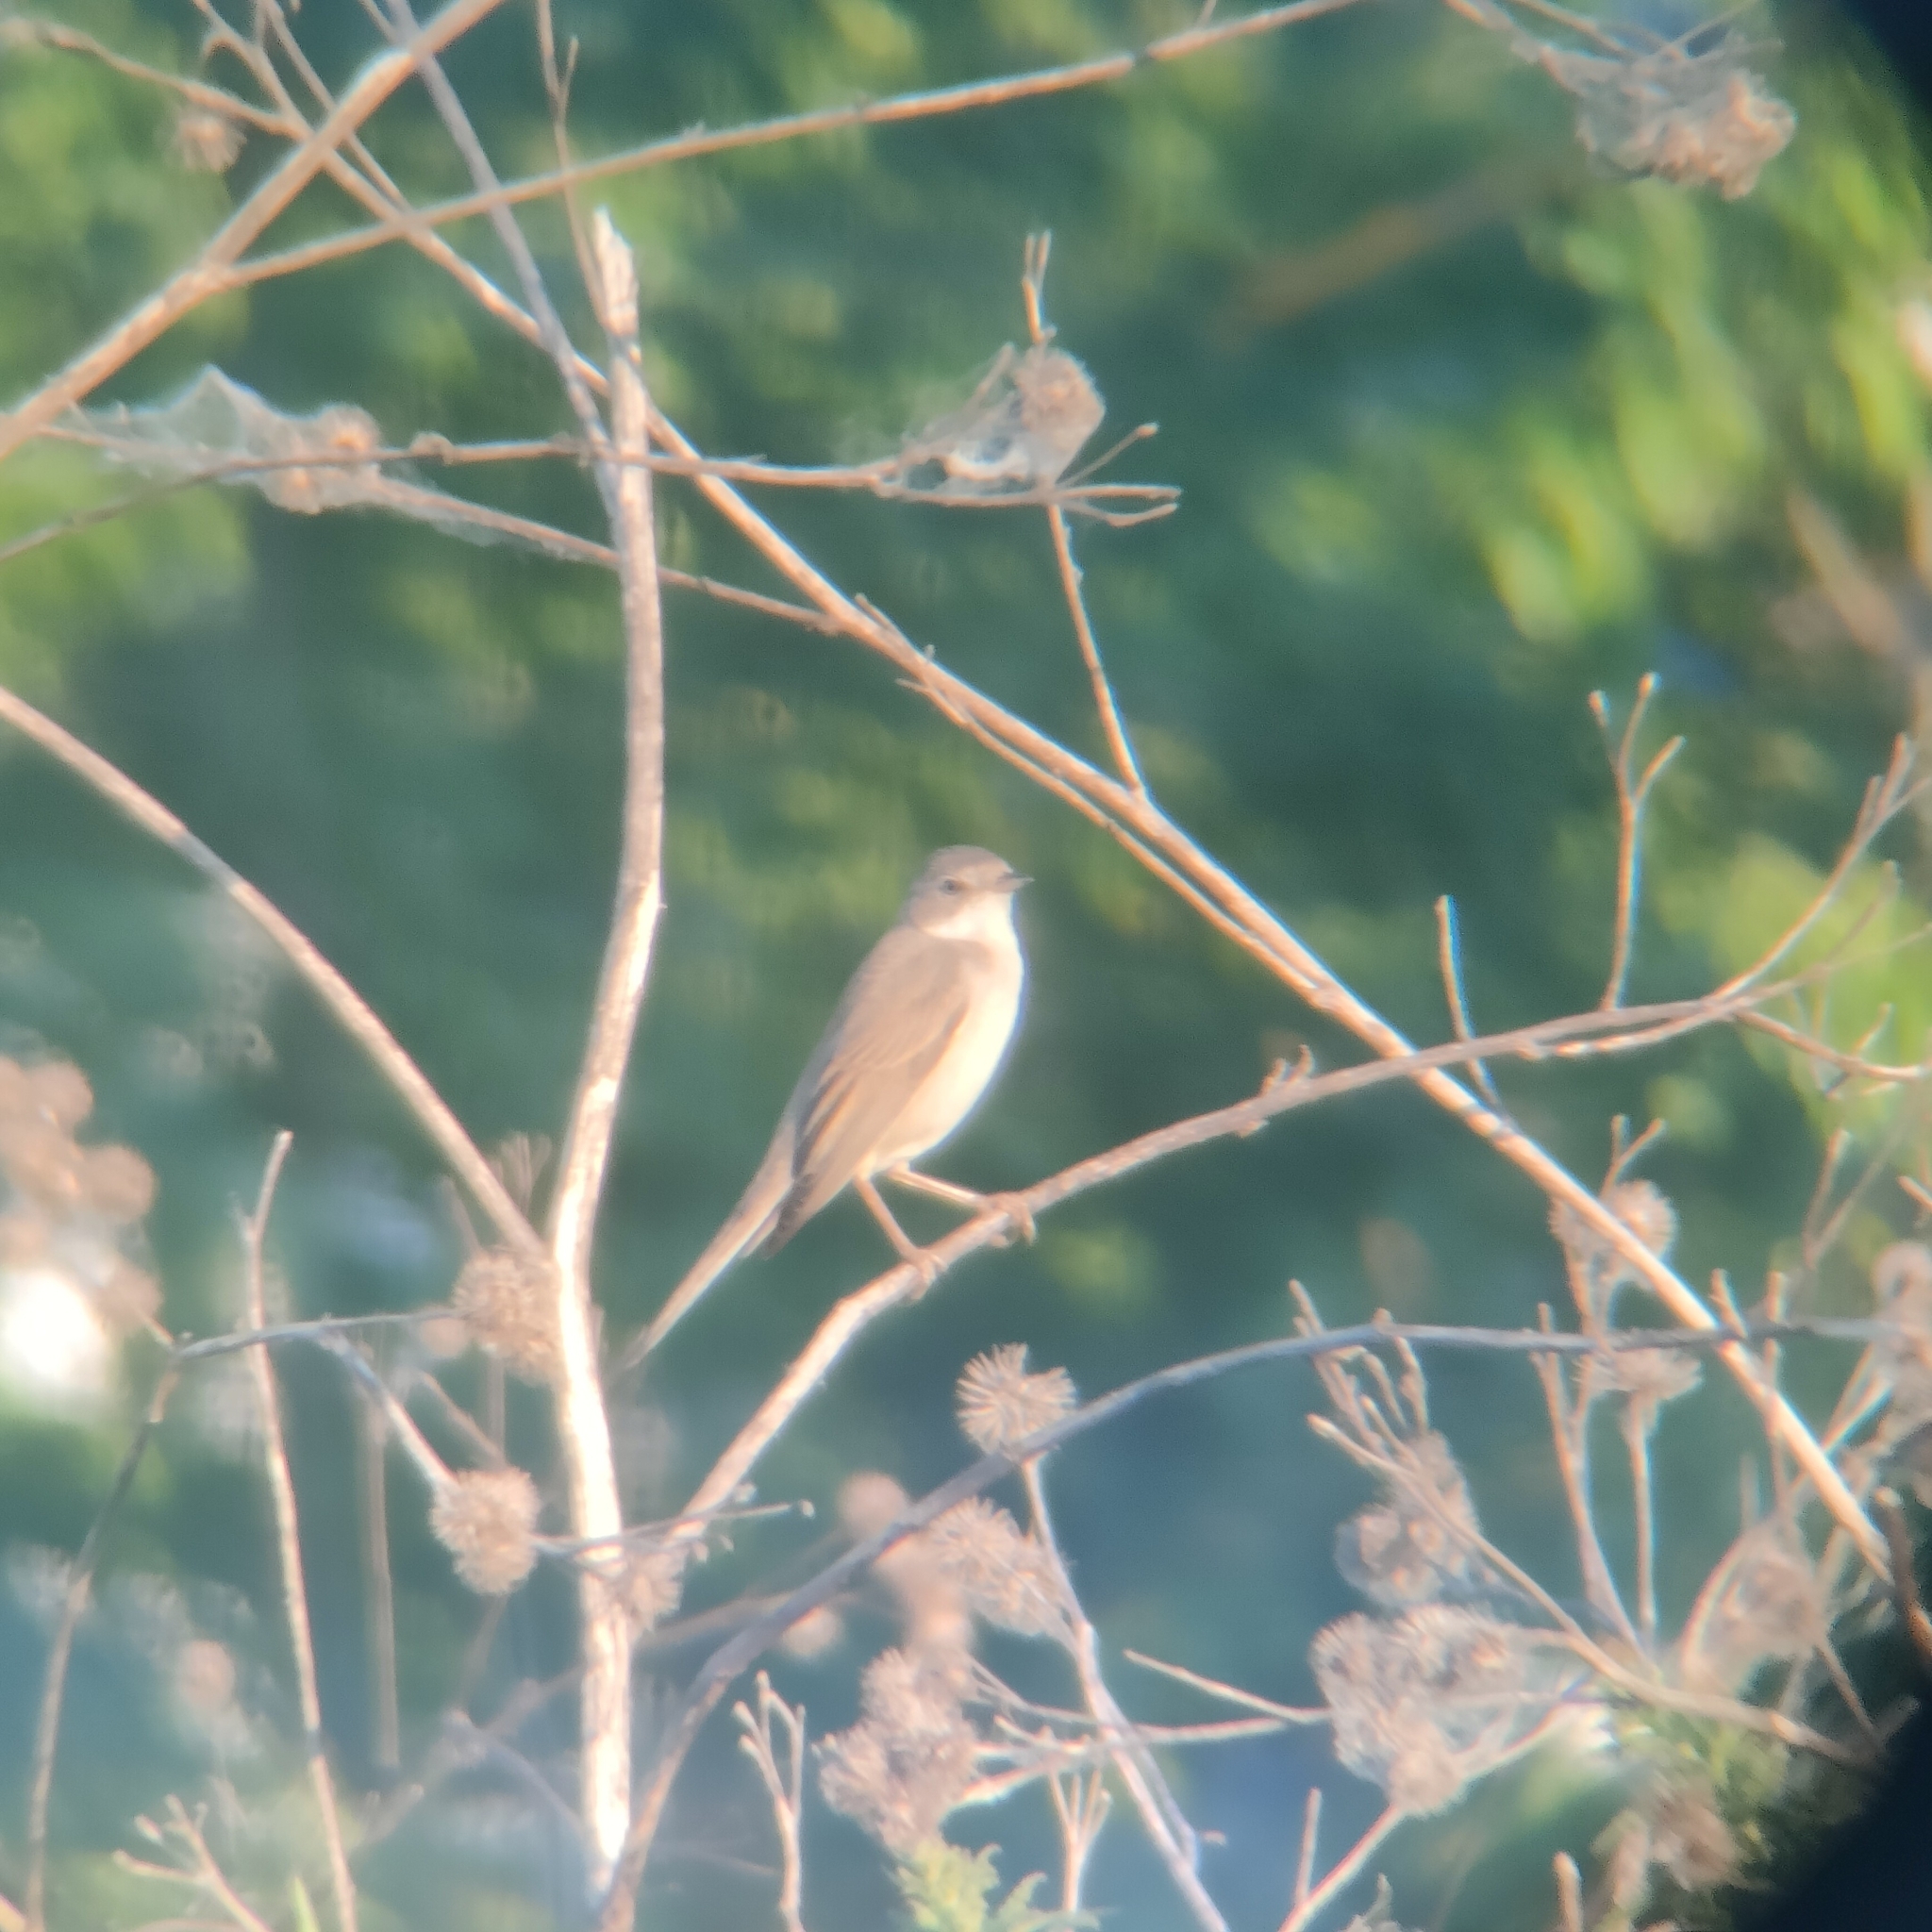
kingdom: Animalia
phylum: Chordata
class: Aves
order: Passeriformes
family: Acrocephalidae
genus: Acrocephalus
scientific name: Acrocephalus palustris
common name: Marsh warbler
